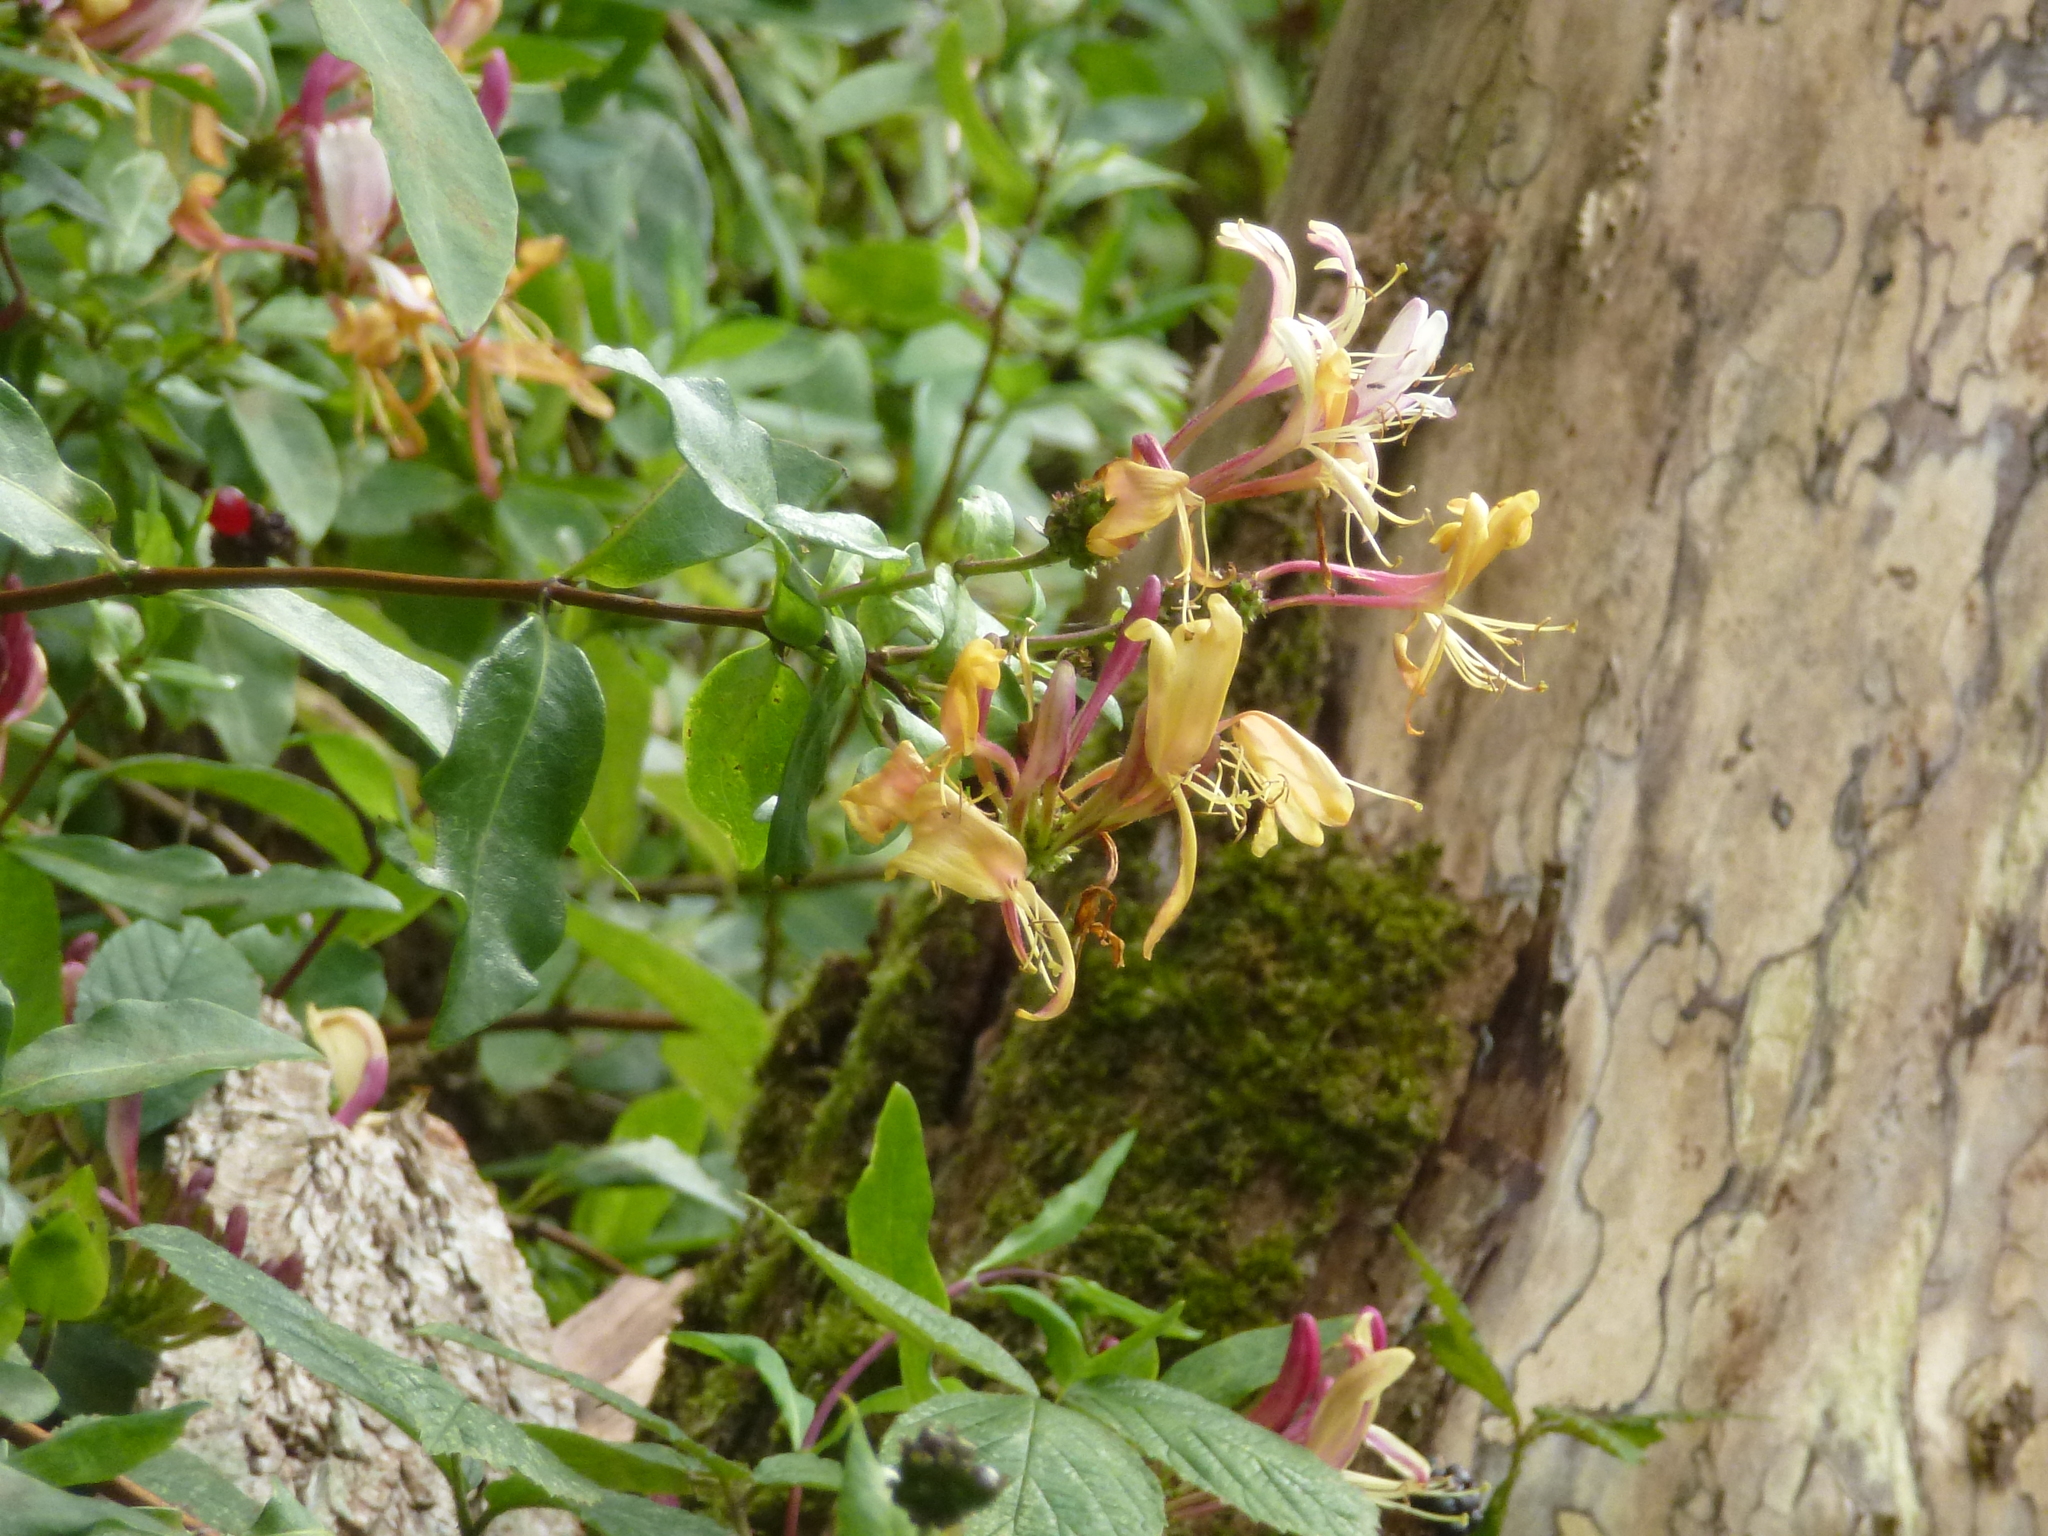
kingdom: Plantae
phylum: Tracheophyta
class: Magnoliopsida
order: Dipsacales
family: Caprifoliaceae
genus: Lonicera
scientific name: Lonicera periclymenum
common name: European honeysuckle
